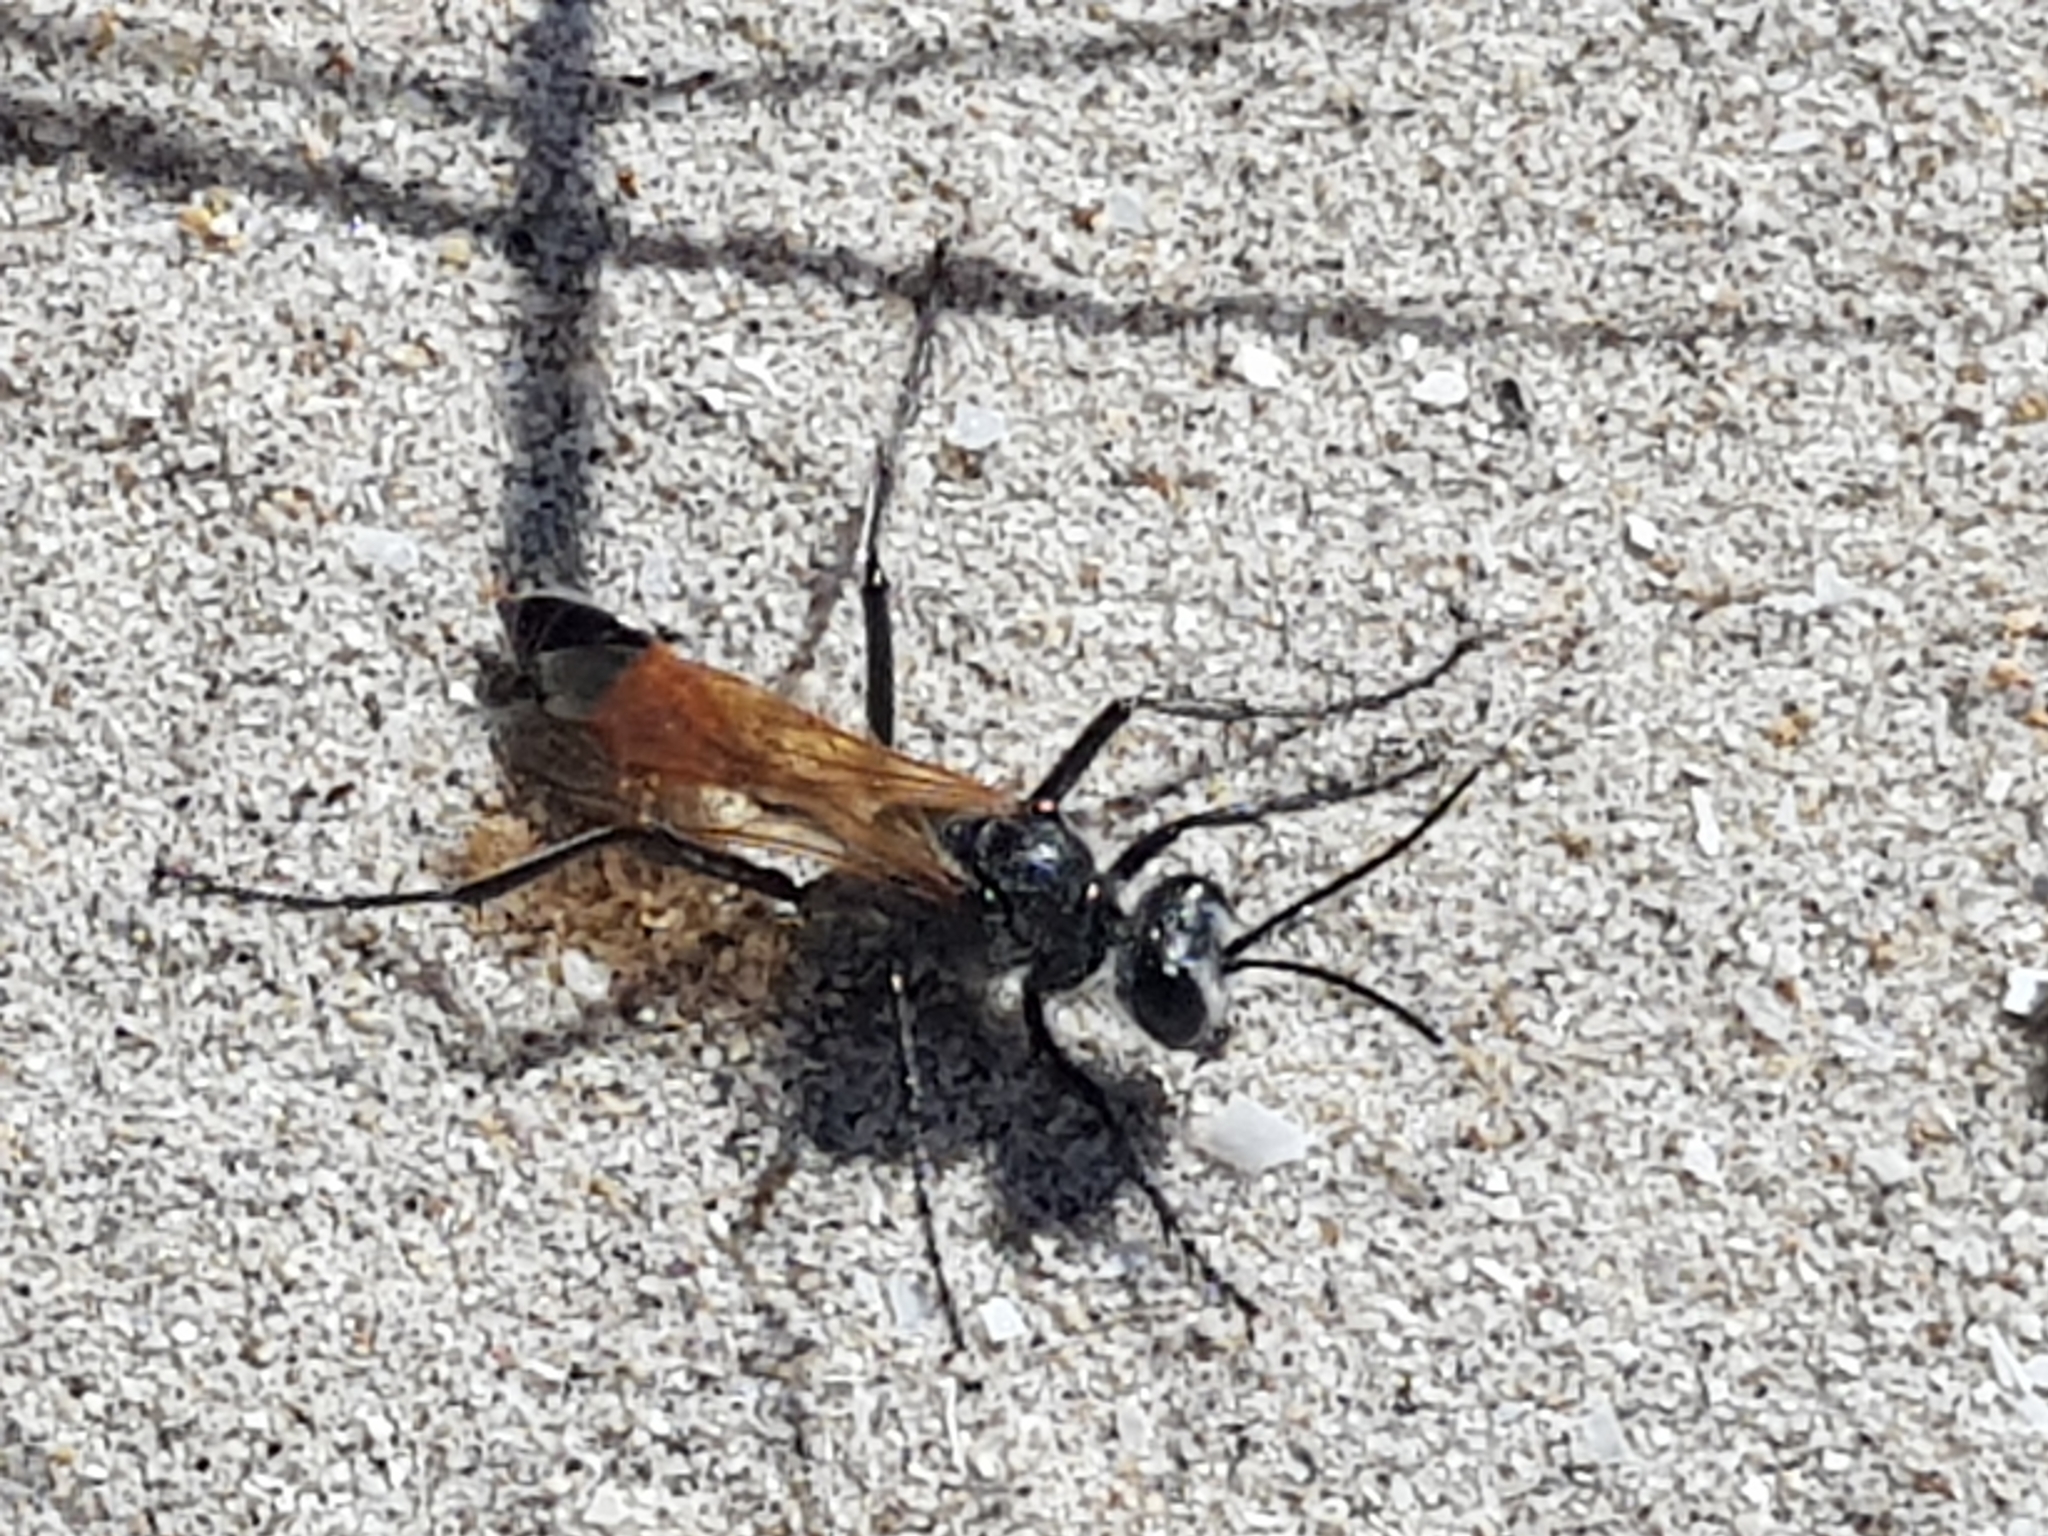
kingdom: Animalia
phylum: Arthropoda
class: Insecta
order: Hymenoptera
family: Sphecidae
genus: Podalonia
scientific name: Podalonia tydei
